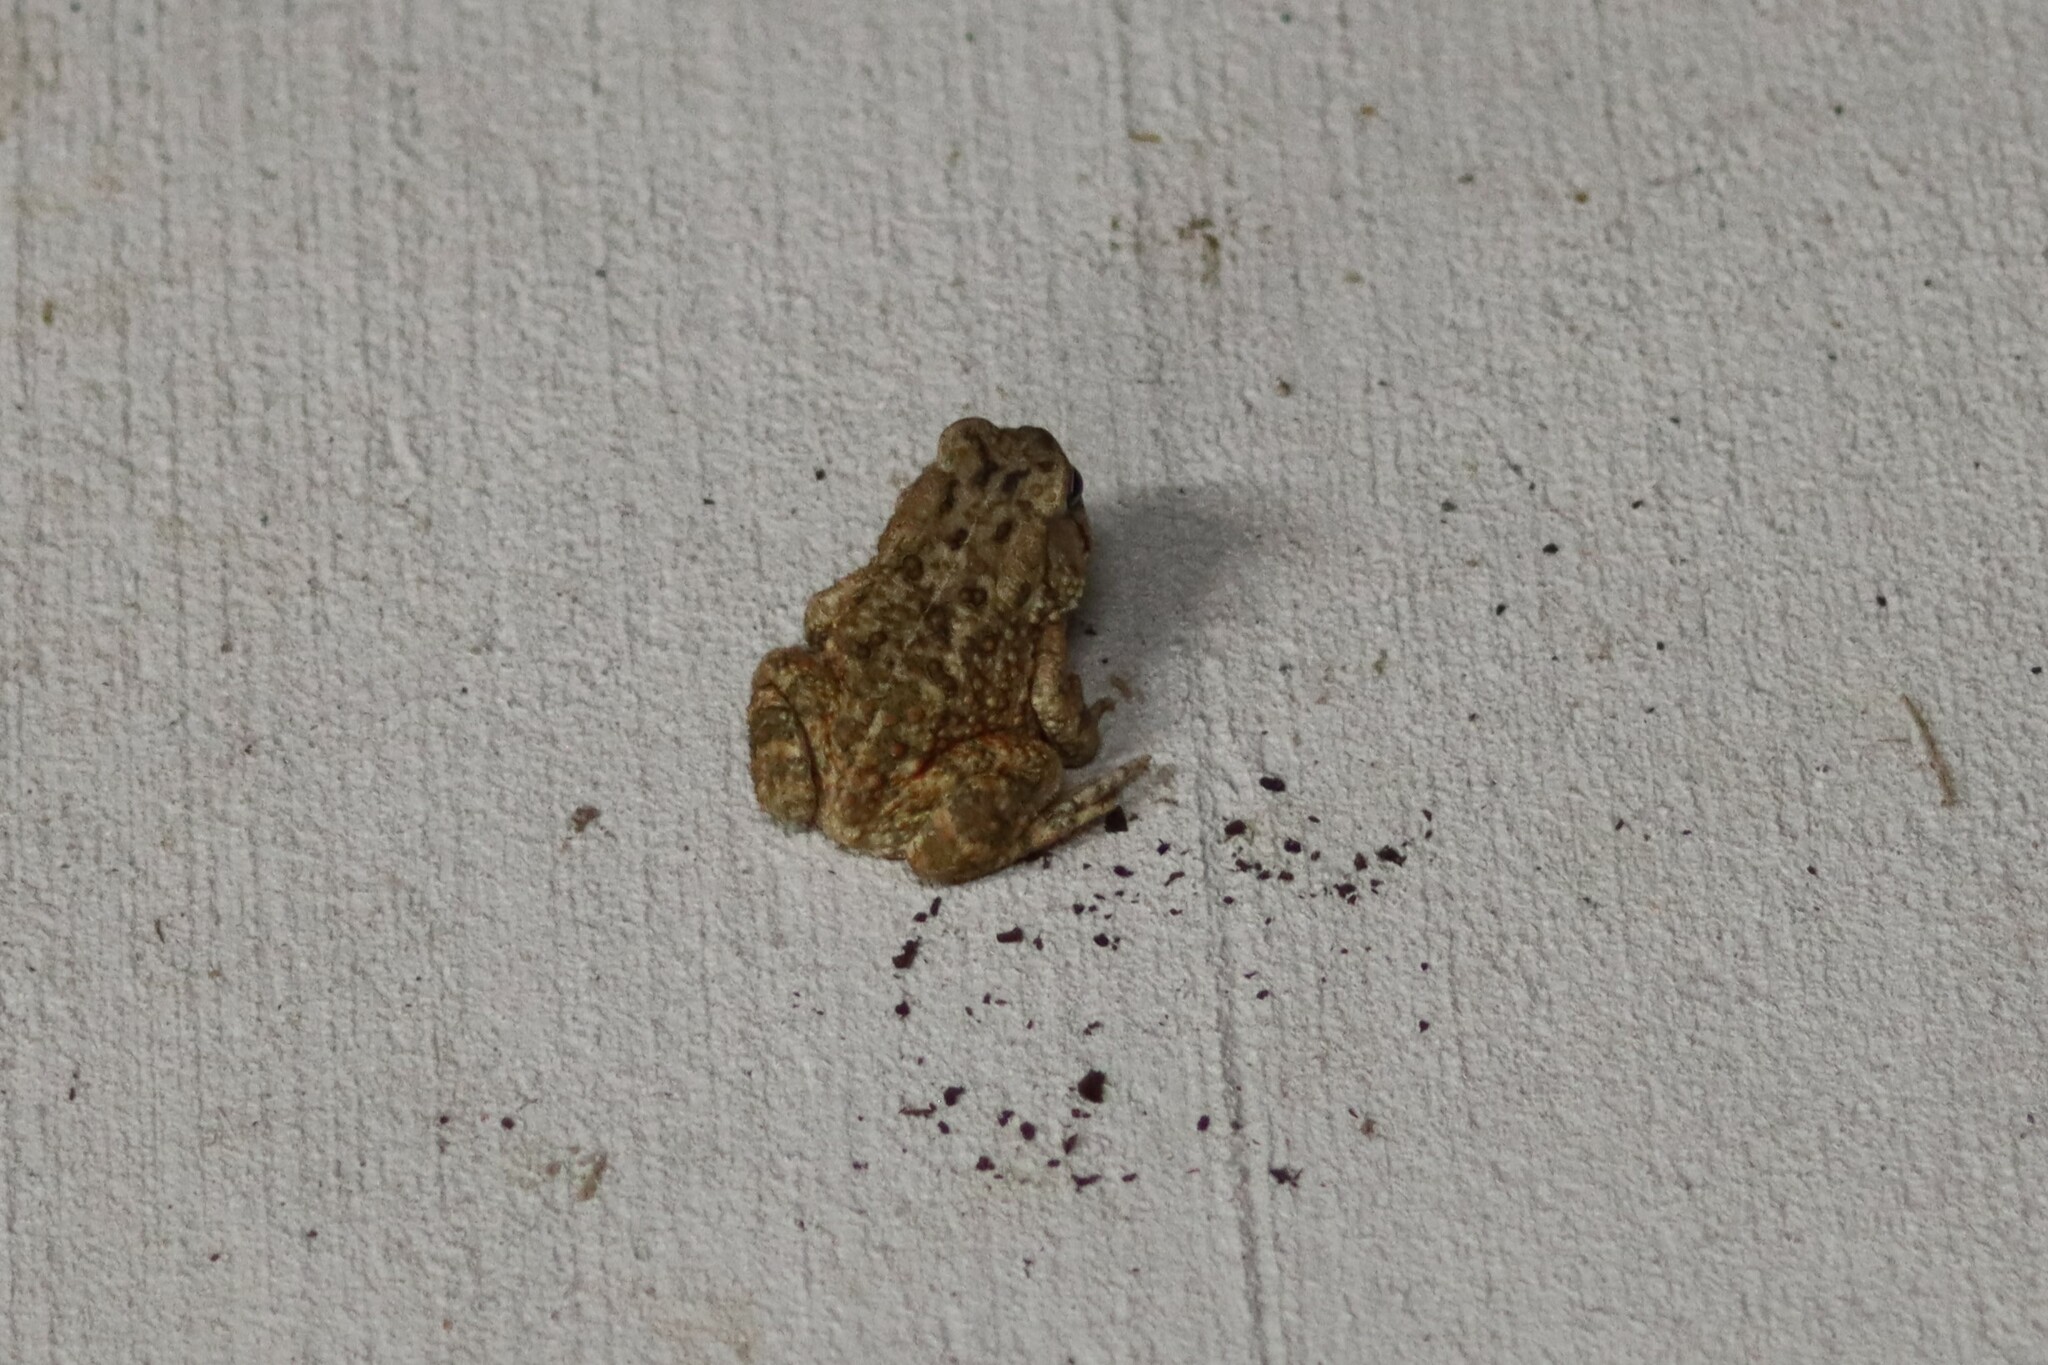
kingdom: Animalia
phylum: Chordata
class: Amphibia
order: Anura
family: Bufonidae
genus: Incilius
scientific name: Incilius nebulifer
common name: Gulf coast toad
